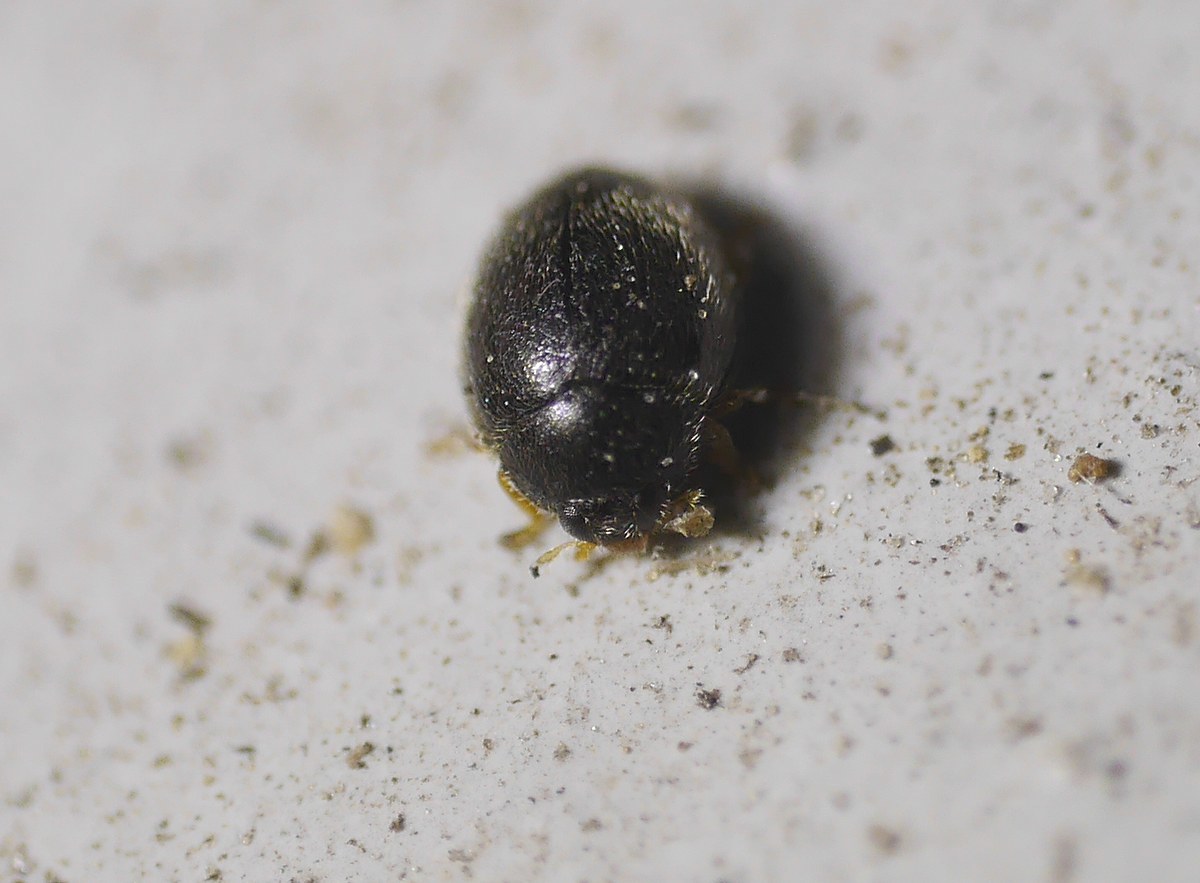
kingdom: Animalia
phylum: Arthropoda
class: Insecta
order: Coleoptera
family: Coccinellidae
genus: Stethorus
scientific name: Stethorus pusillus
